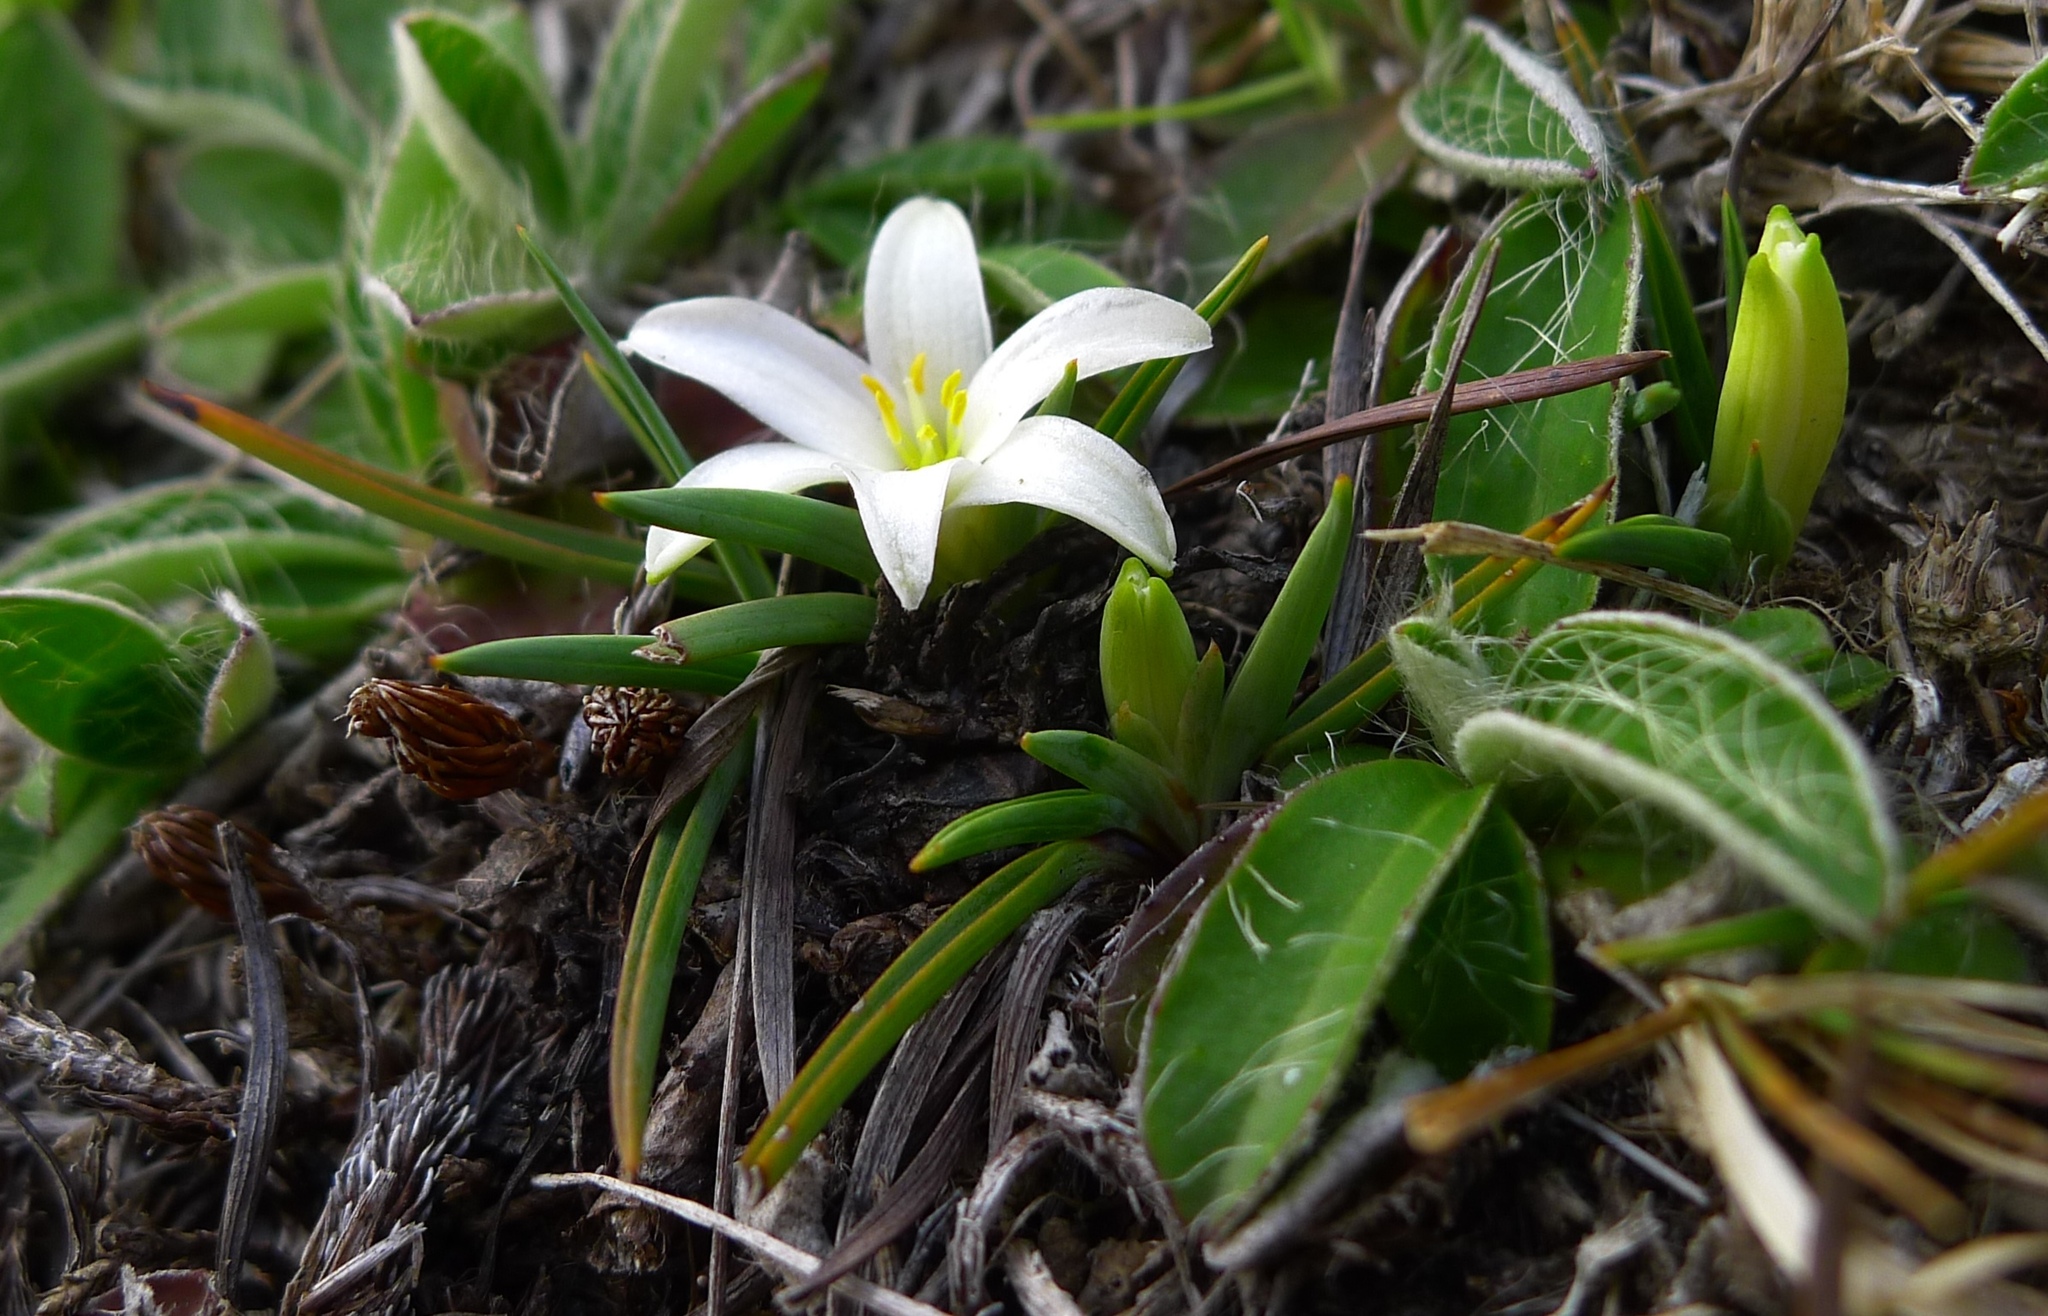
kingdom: Plantae
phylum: Tracheophyta
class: Liliopsida
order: Asparagales
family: Asphodelaceae
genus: Herpolirion
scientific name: Herpolirion novae-zelandiae
